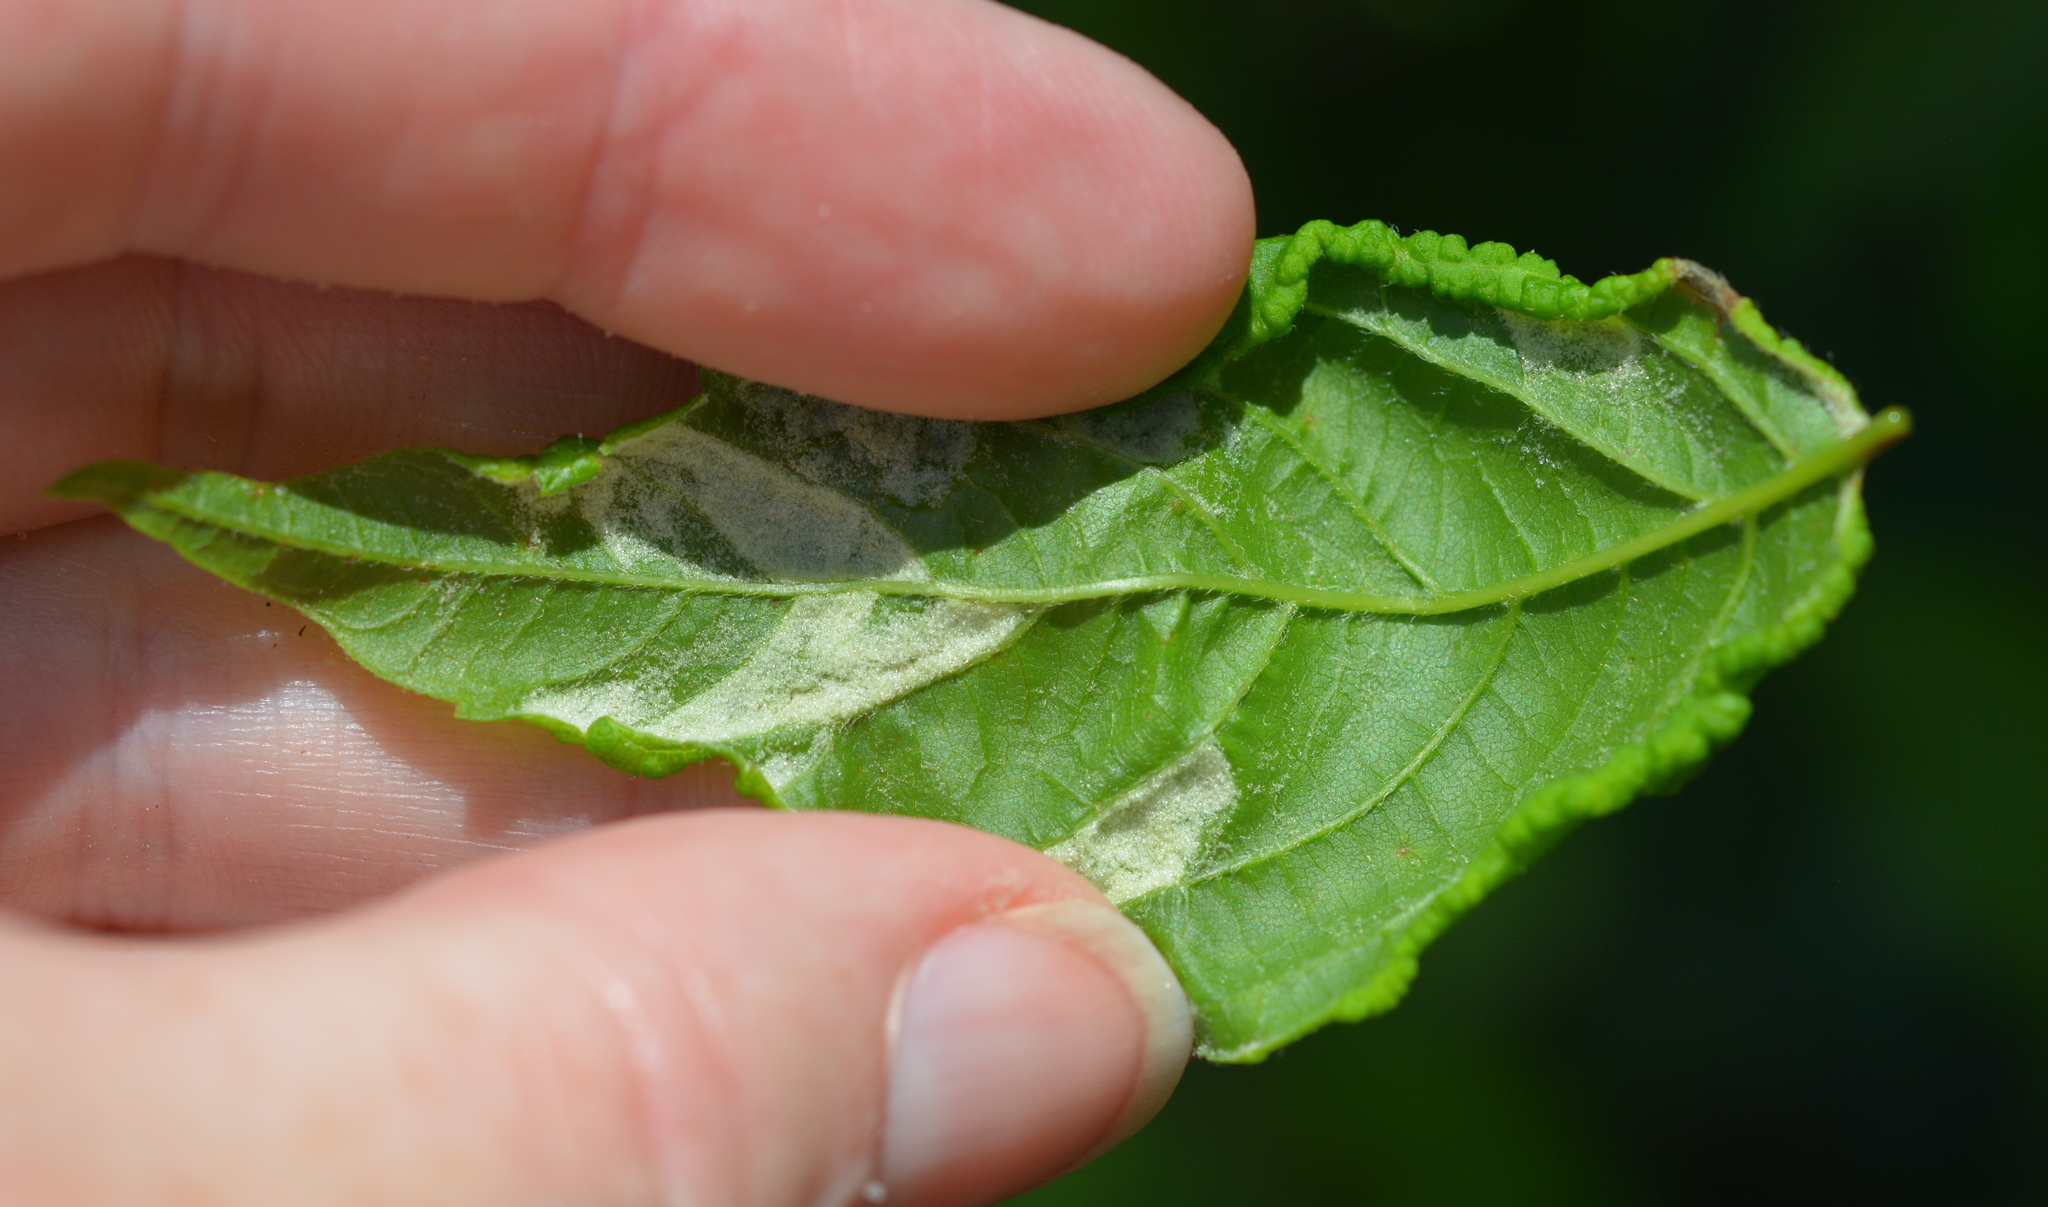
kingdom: Animalia
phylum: Arthropoda
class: Arachnida
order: Trombidiformes
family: Eriophyidae
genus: Aceria
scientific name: Aceria
